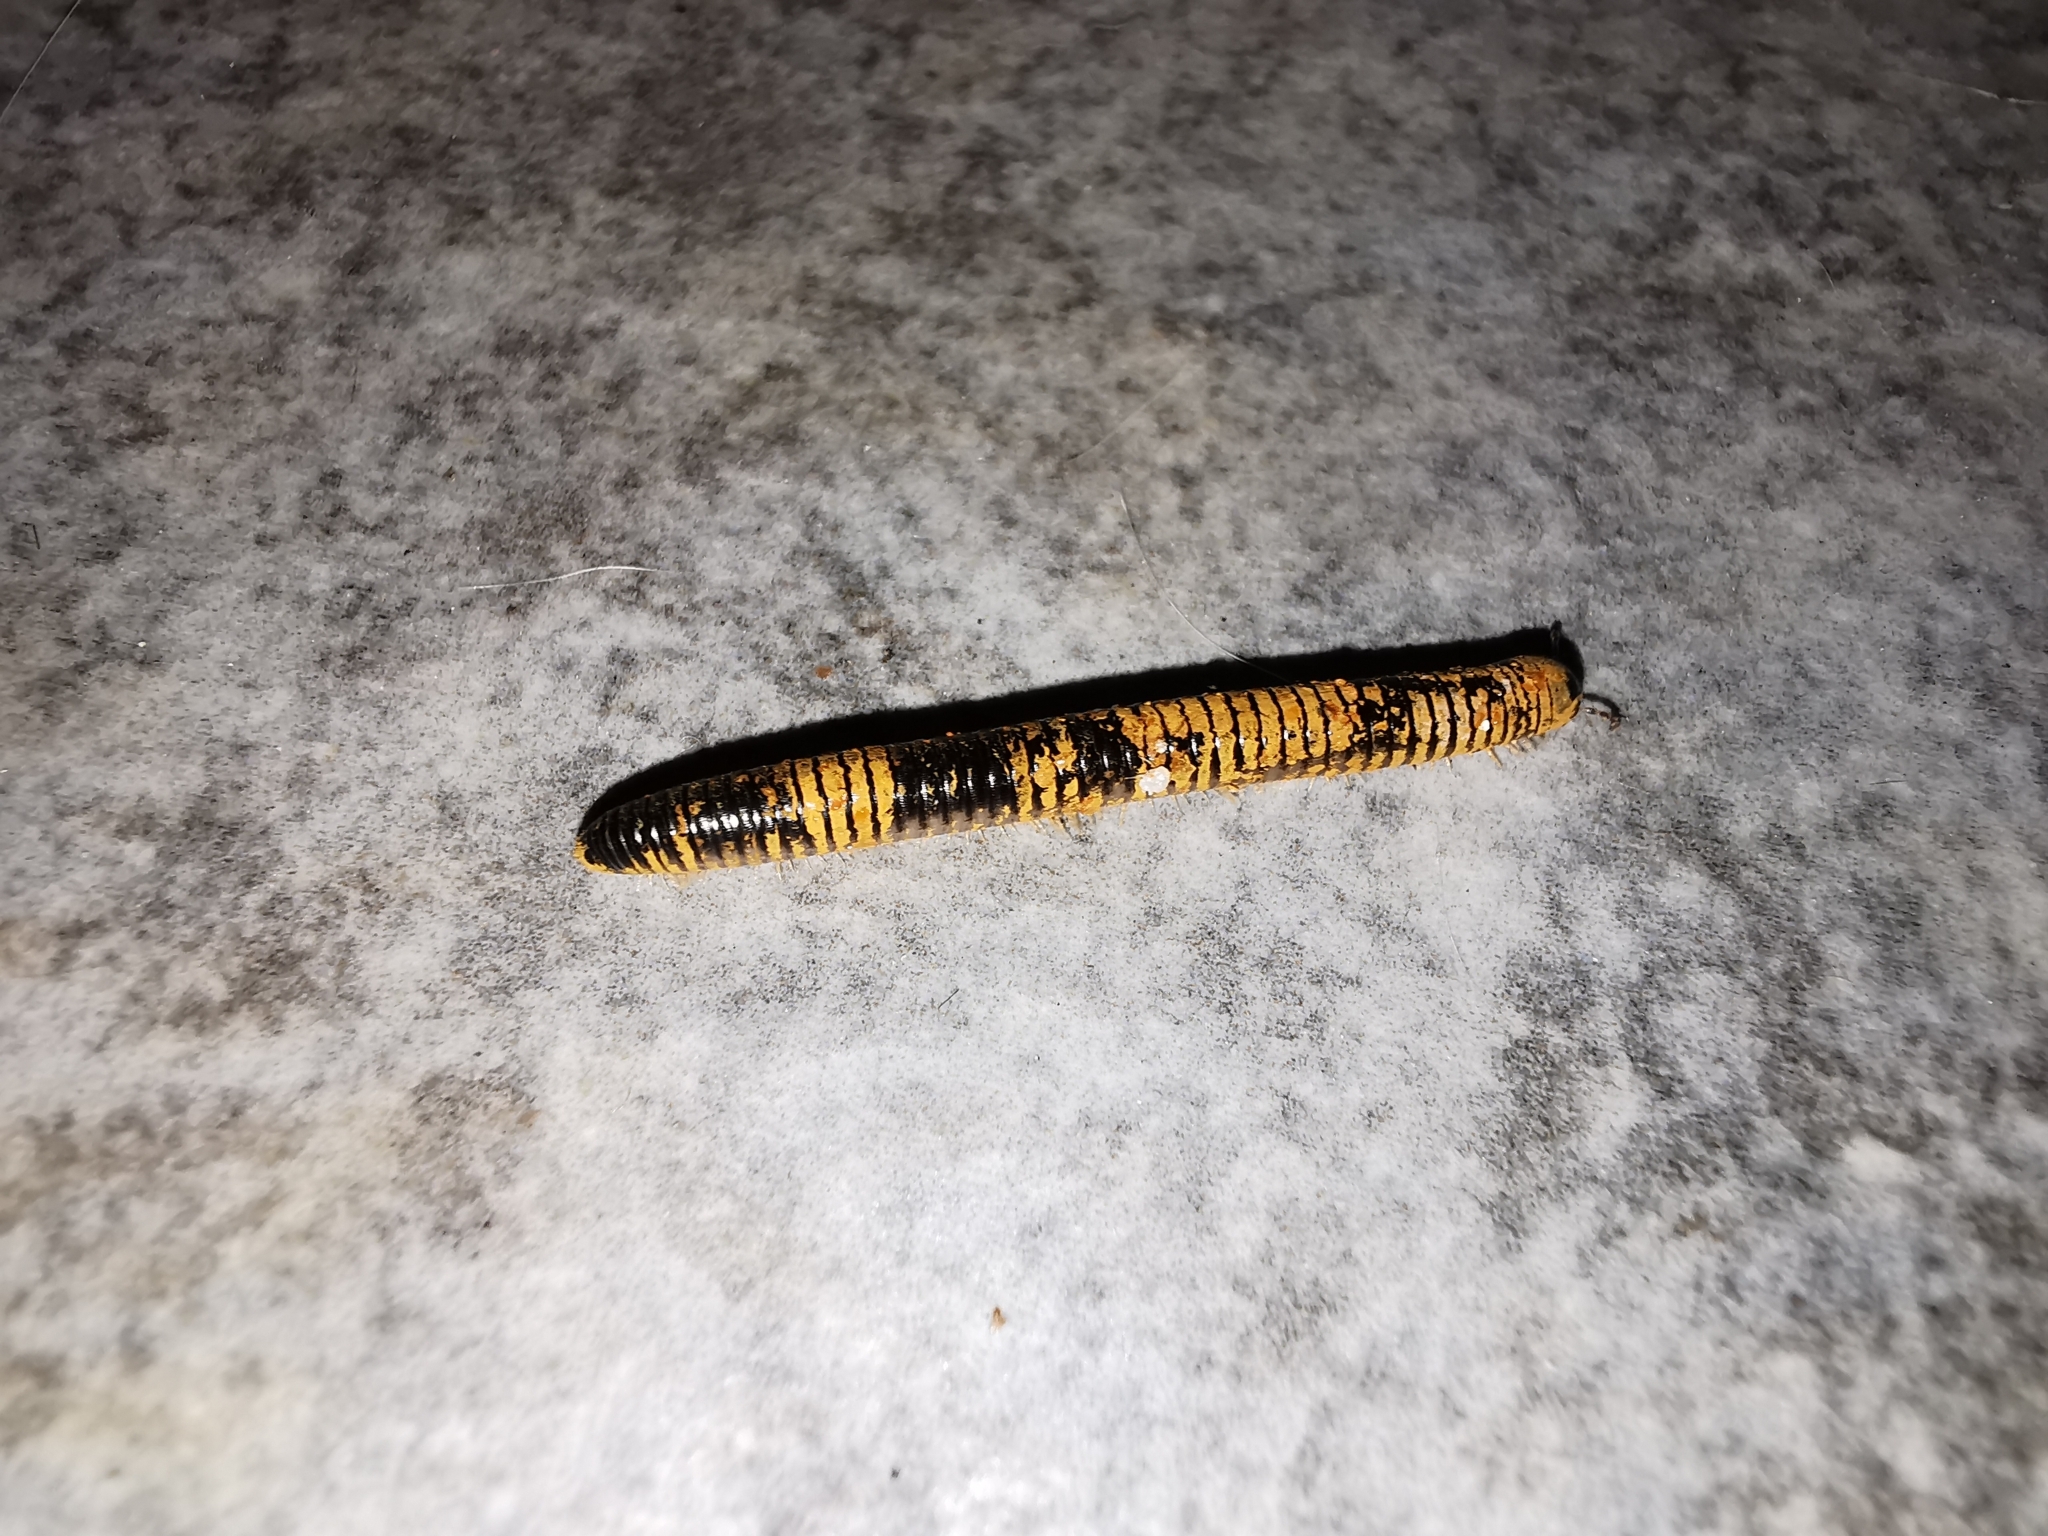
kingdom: Animalia
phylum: Arthropoda
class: Diplopoda
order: Julida
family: Julidae
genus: Pachyiulus
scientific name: Pachyiulus flavipes
